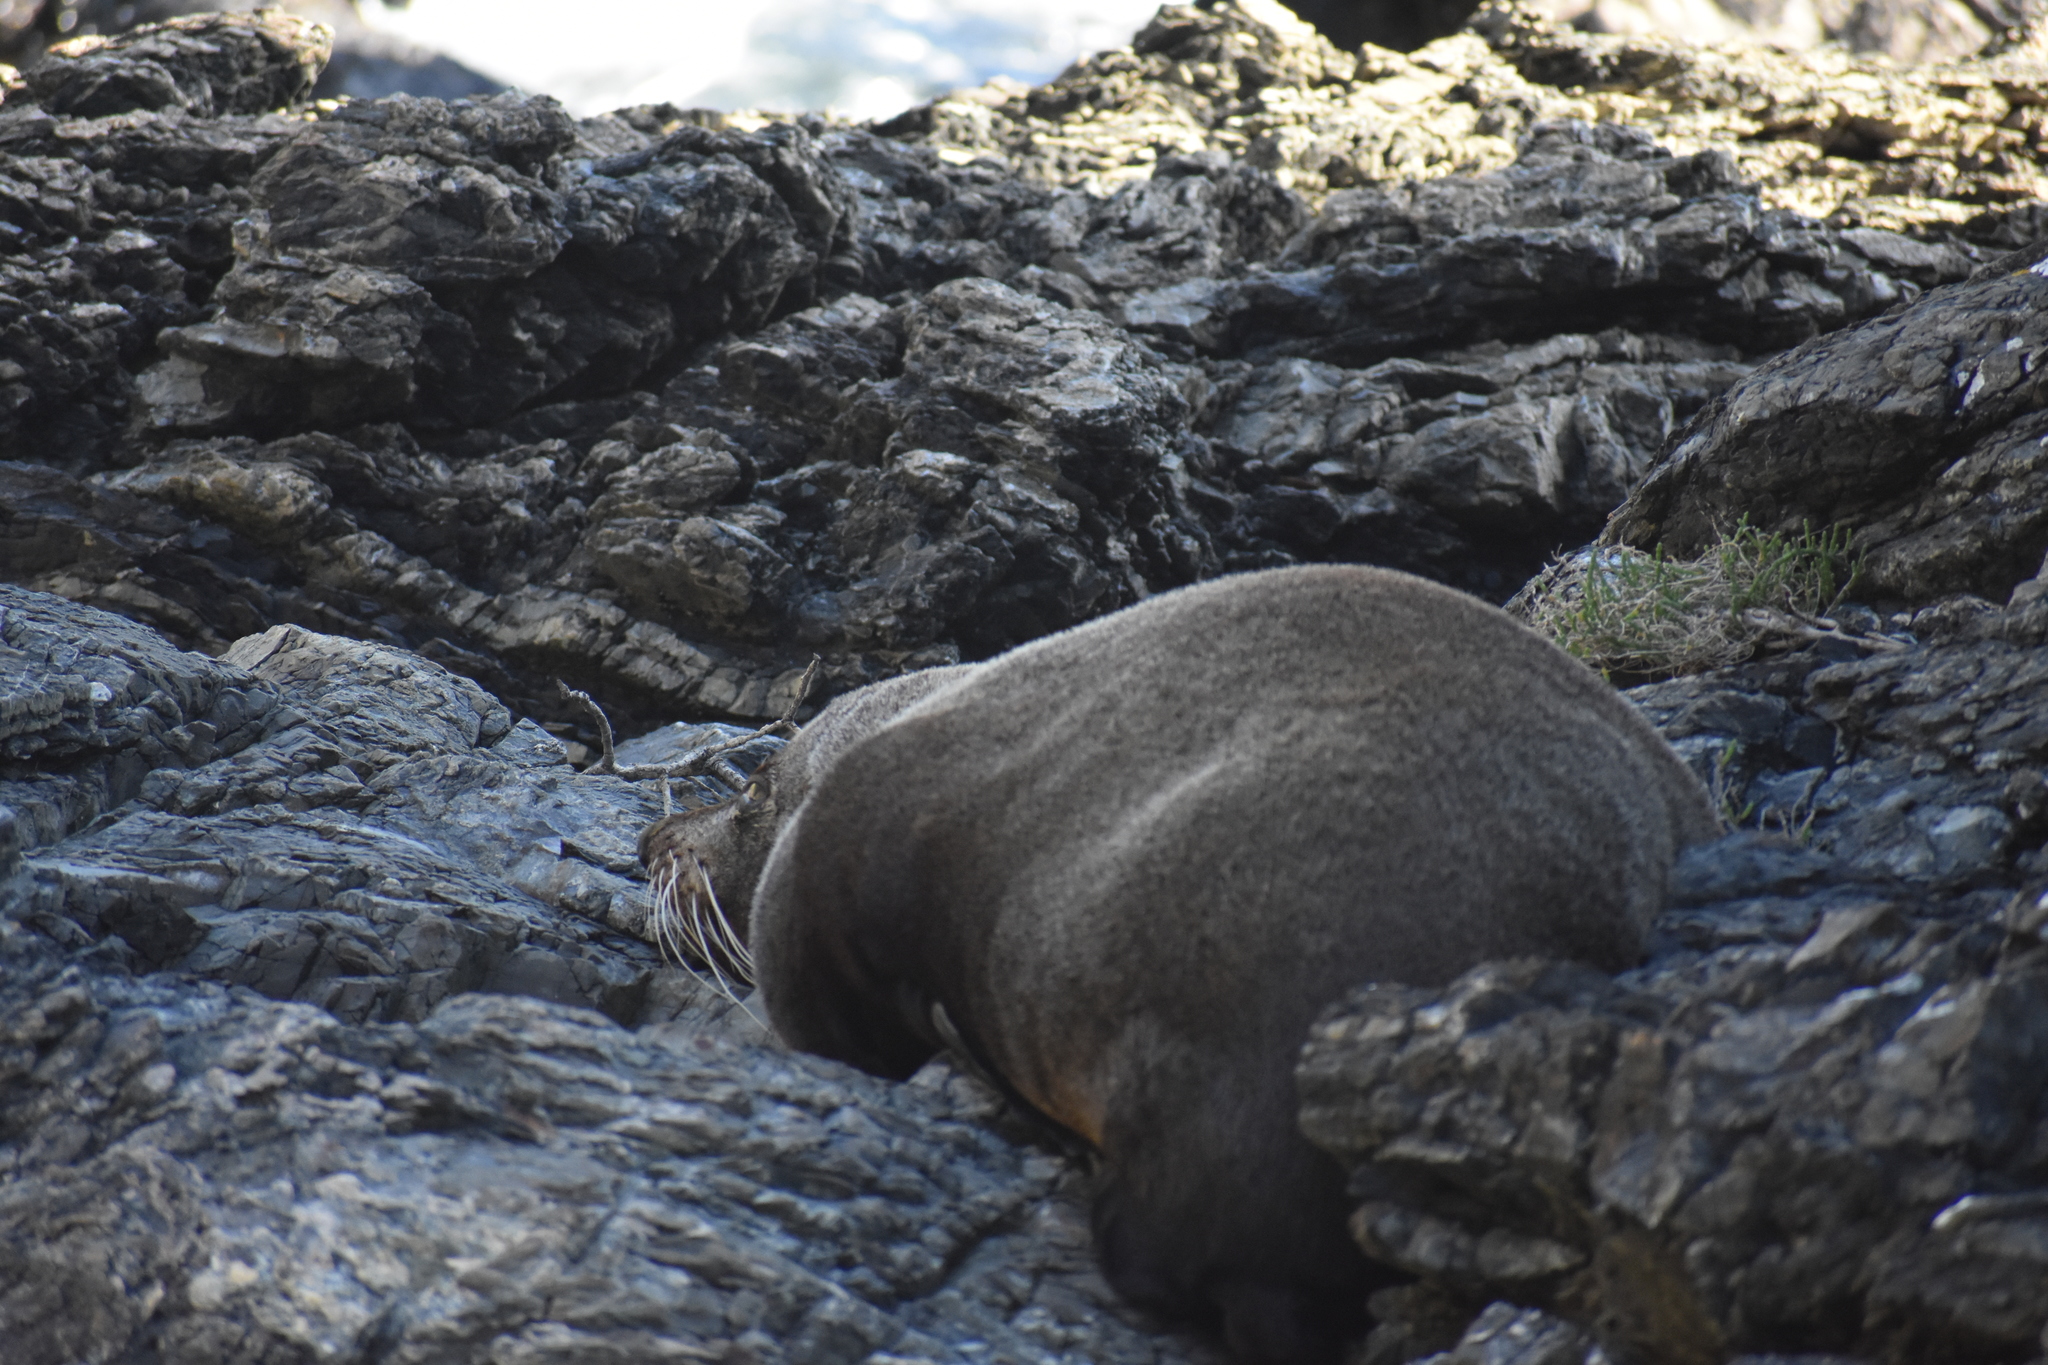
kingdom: Animalia
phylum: Chordata
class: Mammalia
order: Carnivora
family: Otariidae
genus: Arctocephalus
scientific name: Arctocephalus forsteri
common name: New zealand fur seal
